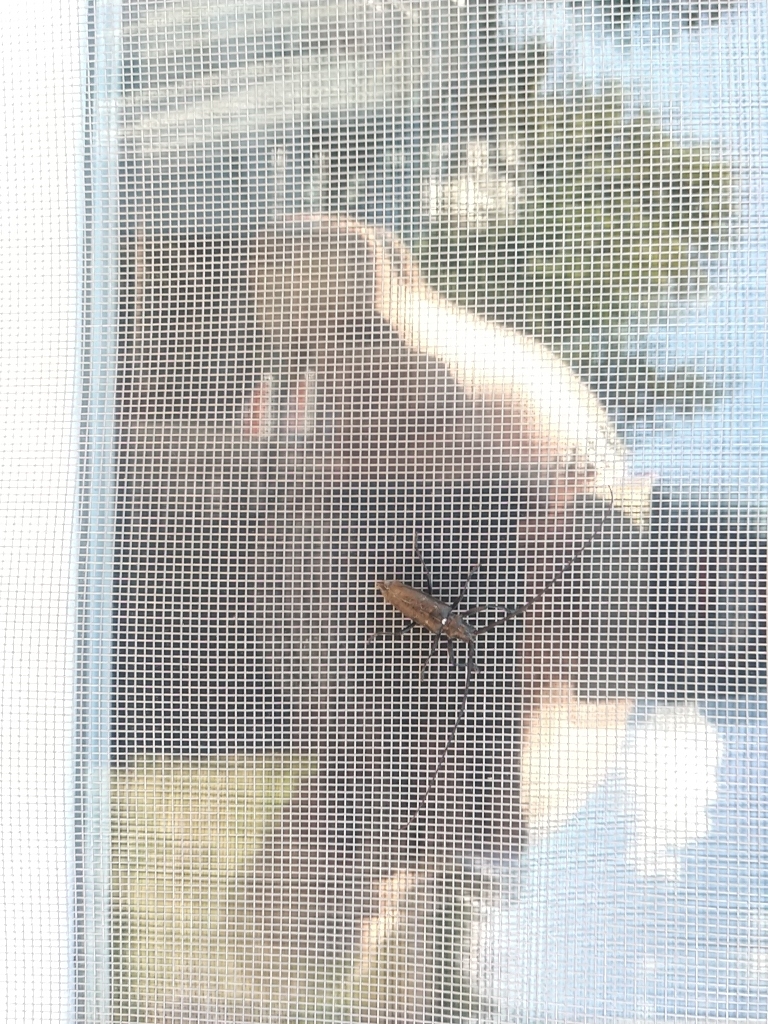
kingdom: Animalia
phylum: Arthropoda
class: Insecta
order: Coleoptera
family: Cerambycidae
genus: Monochamus
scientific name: Monochamus scutellatus
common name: White-spotted sawyer beetle
